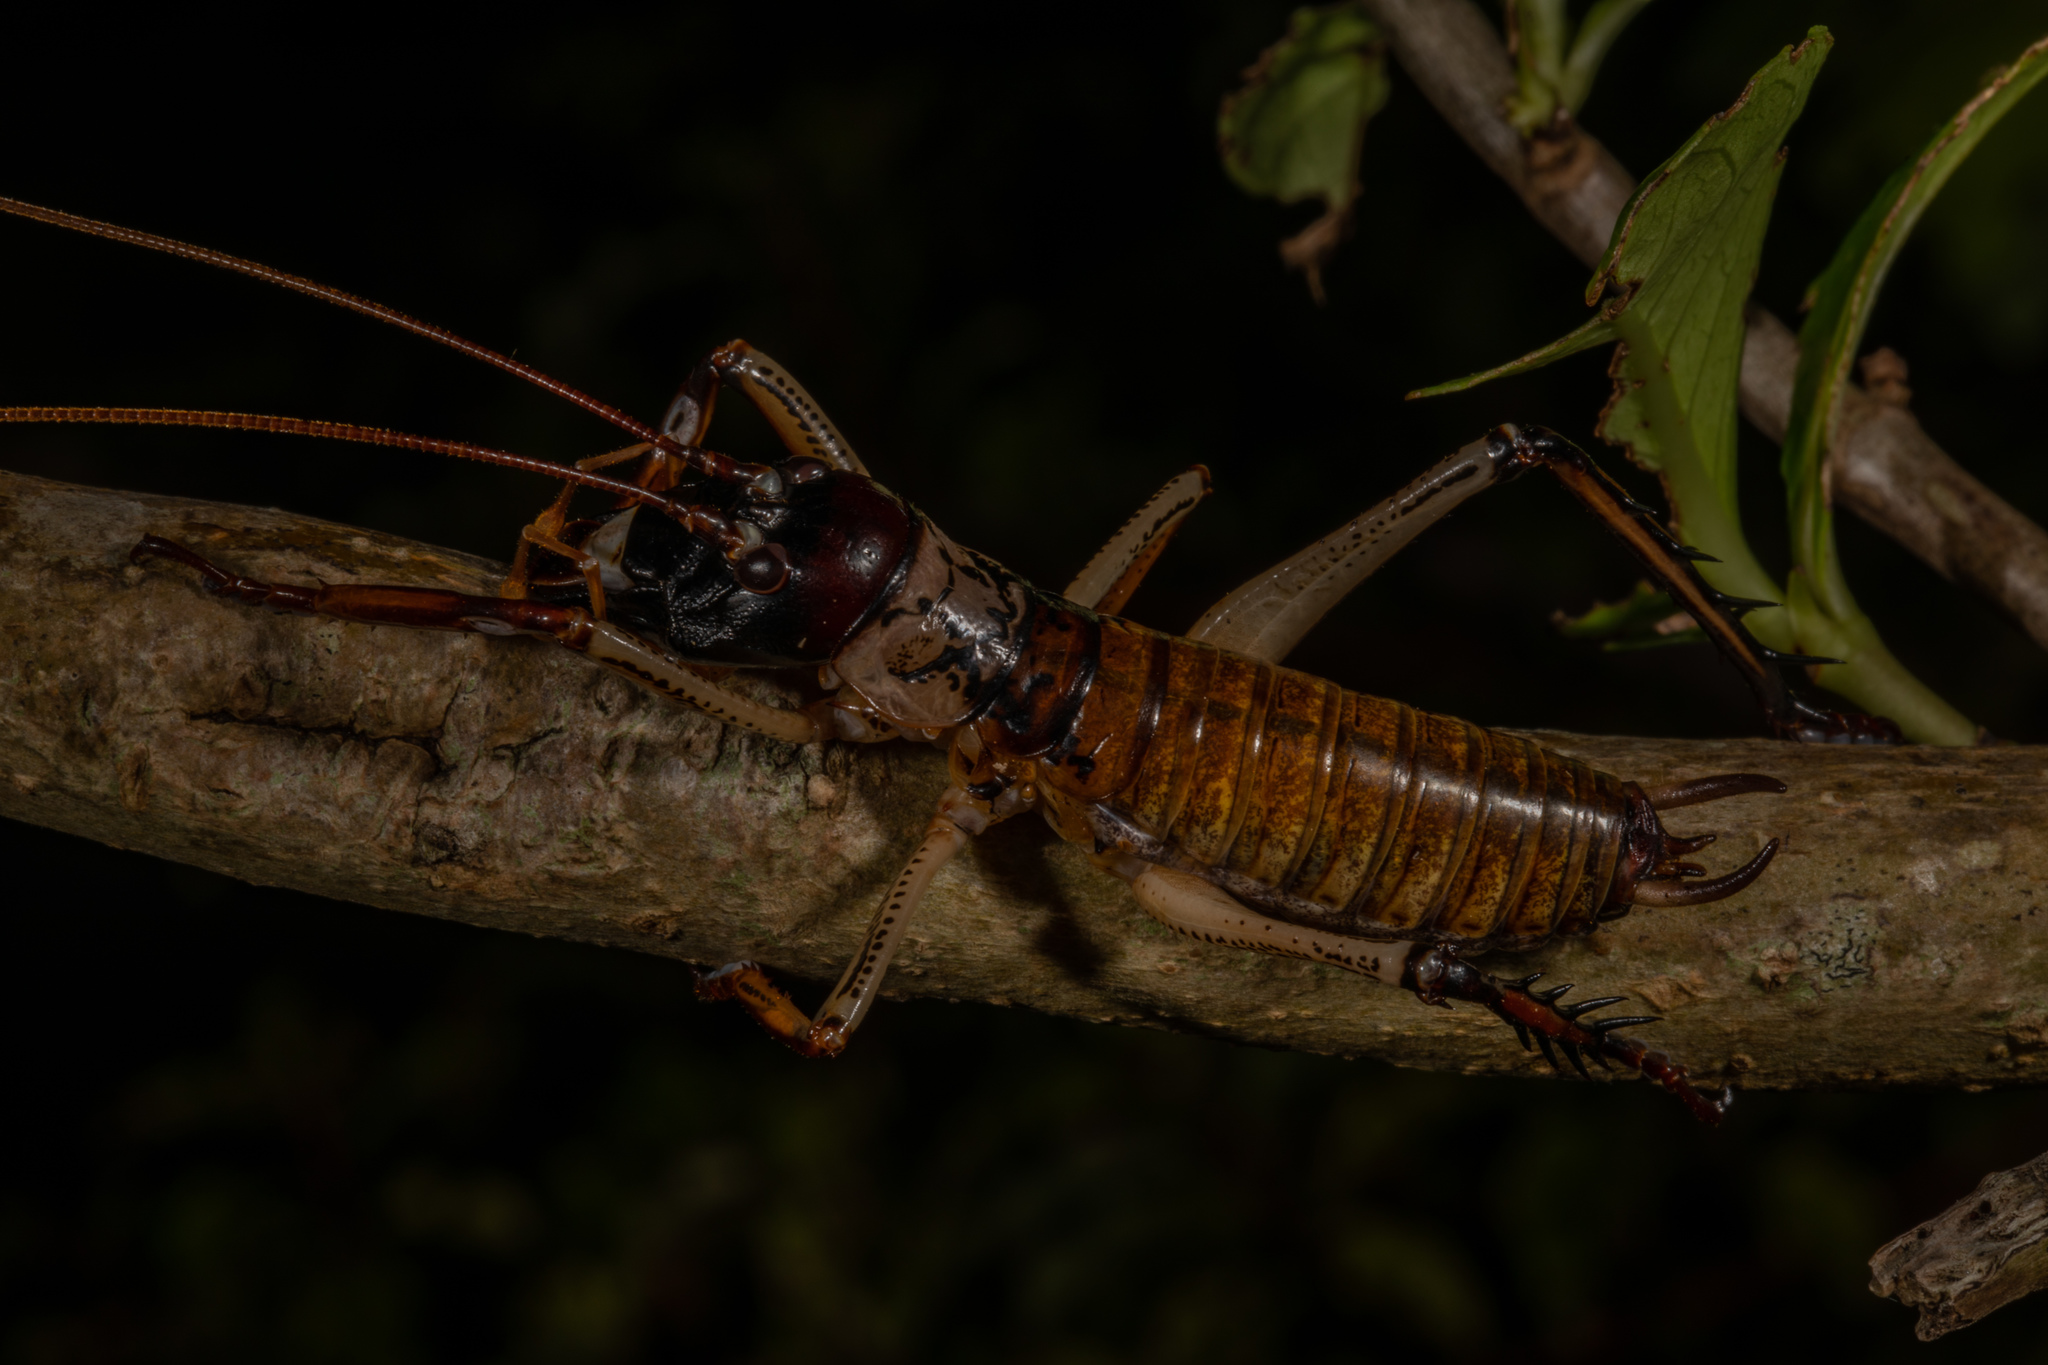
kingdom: Animalia
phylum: Arthropoda
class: Insecta
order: Orthoptera
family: Anostostomatidae
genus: Hemideina
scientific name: Hemideina thoracica
